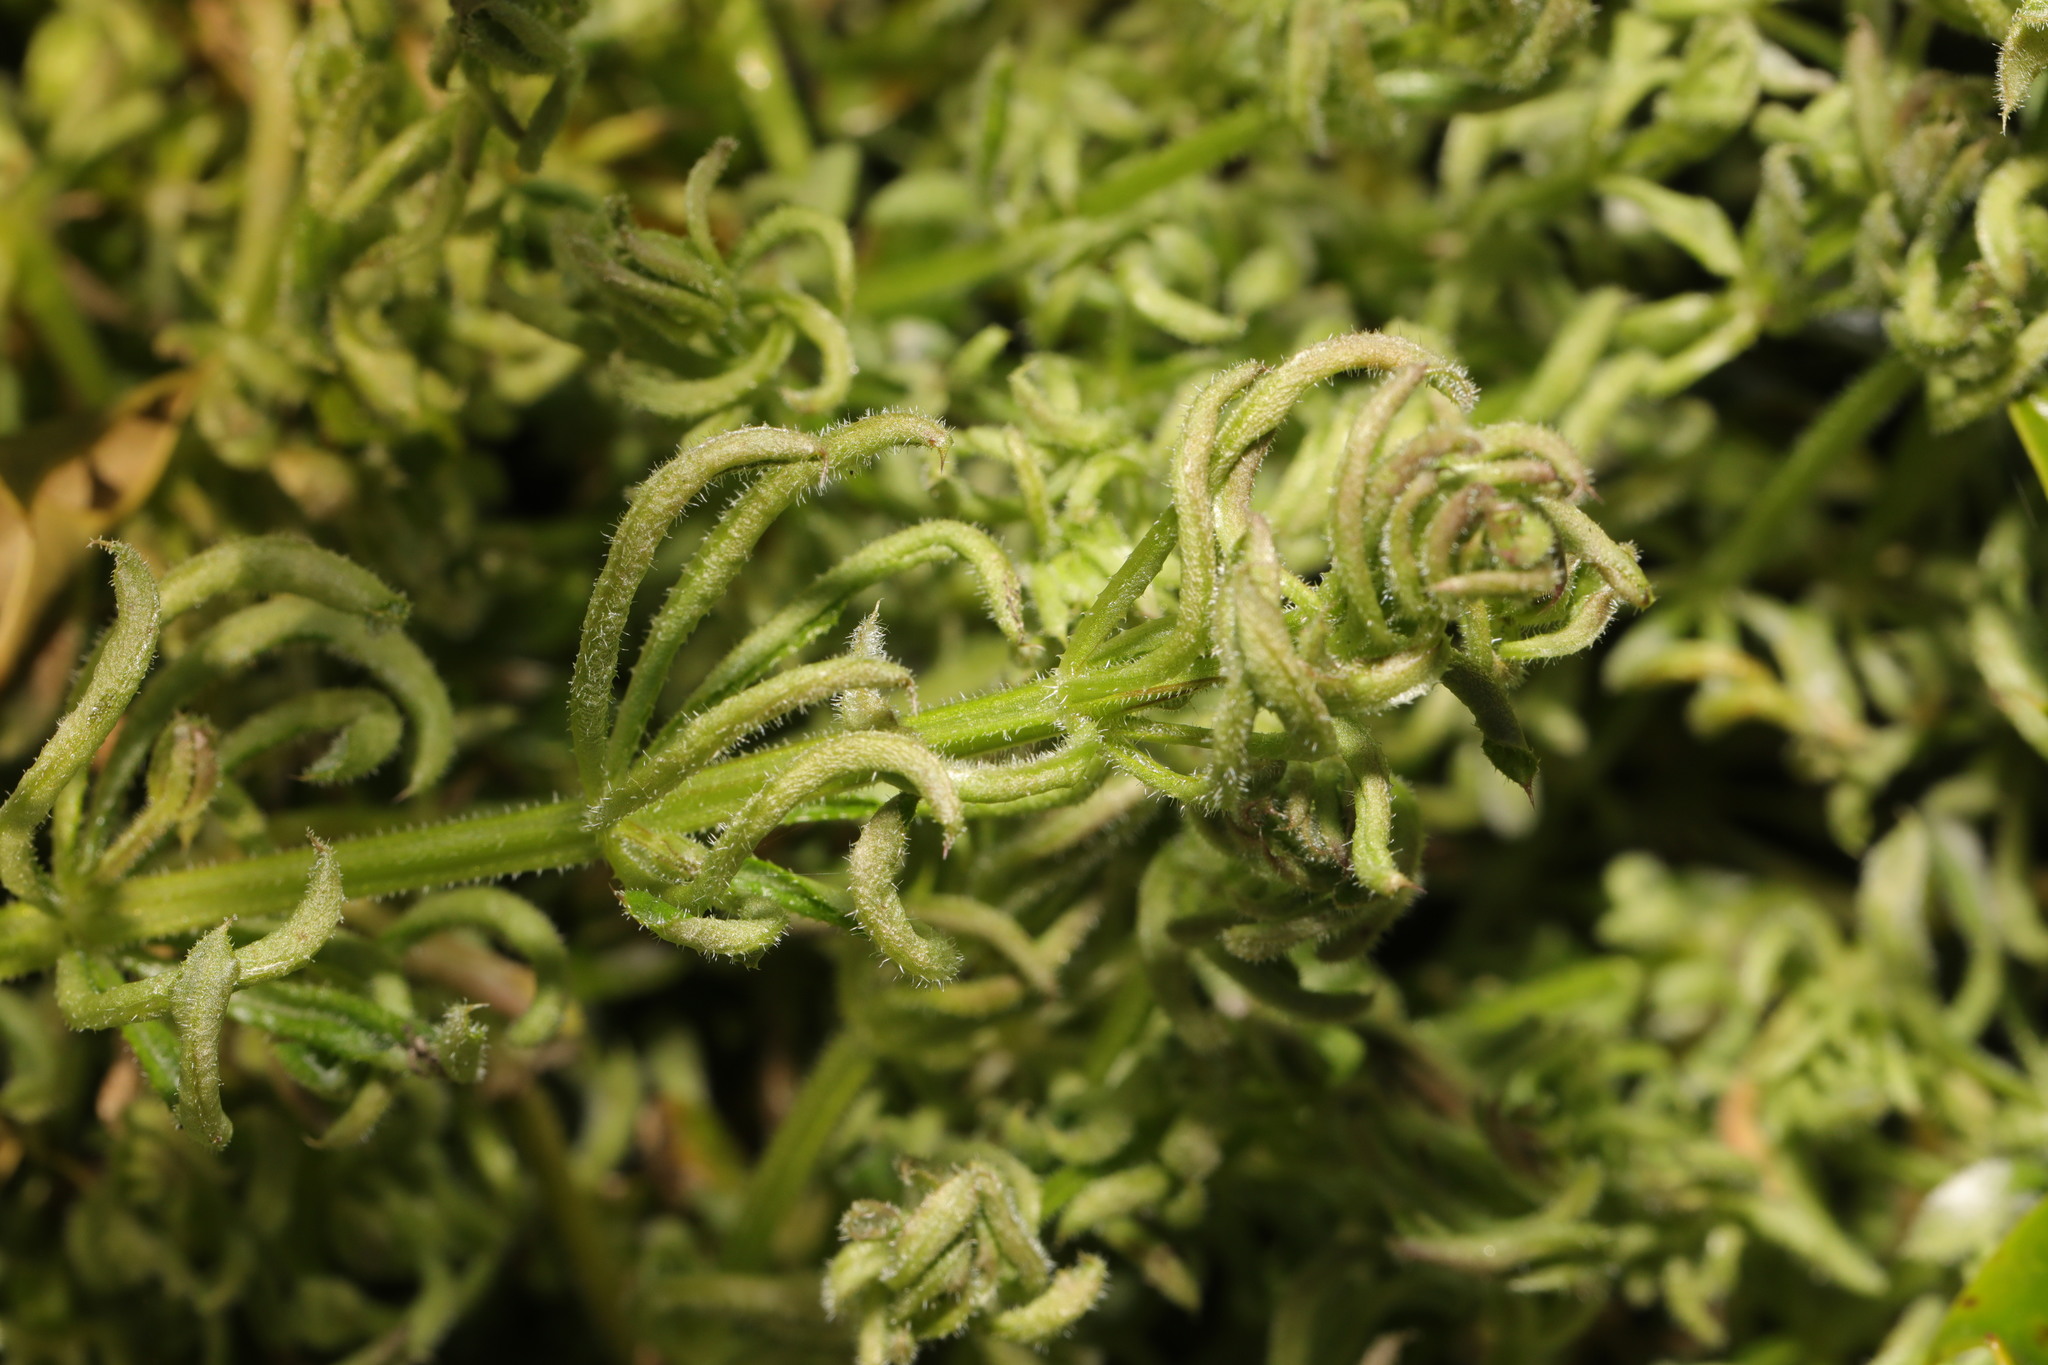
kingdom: Animalia
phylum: Arthropoda
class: Arachnida
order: Trombidiformes
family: Eriophyidae
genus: Cecidophyes
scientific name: Cecidophyes rouhollahi
